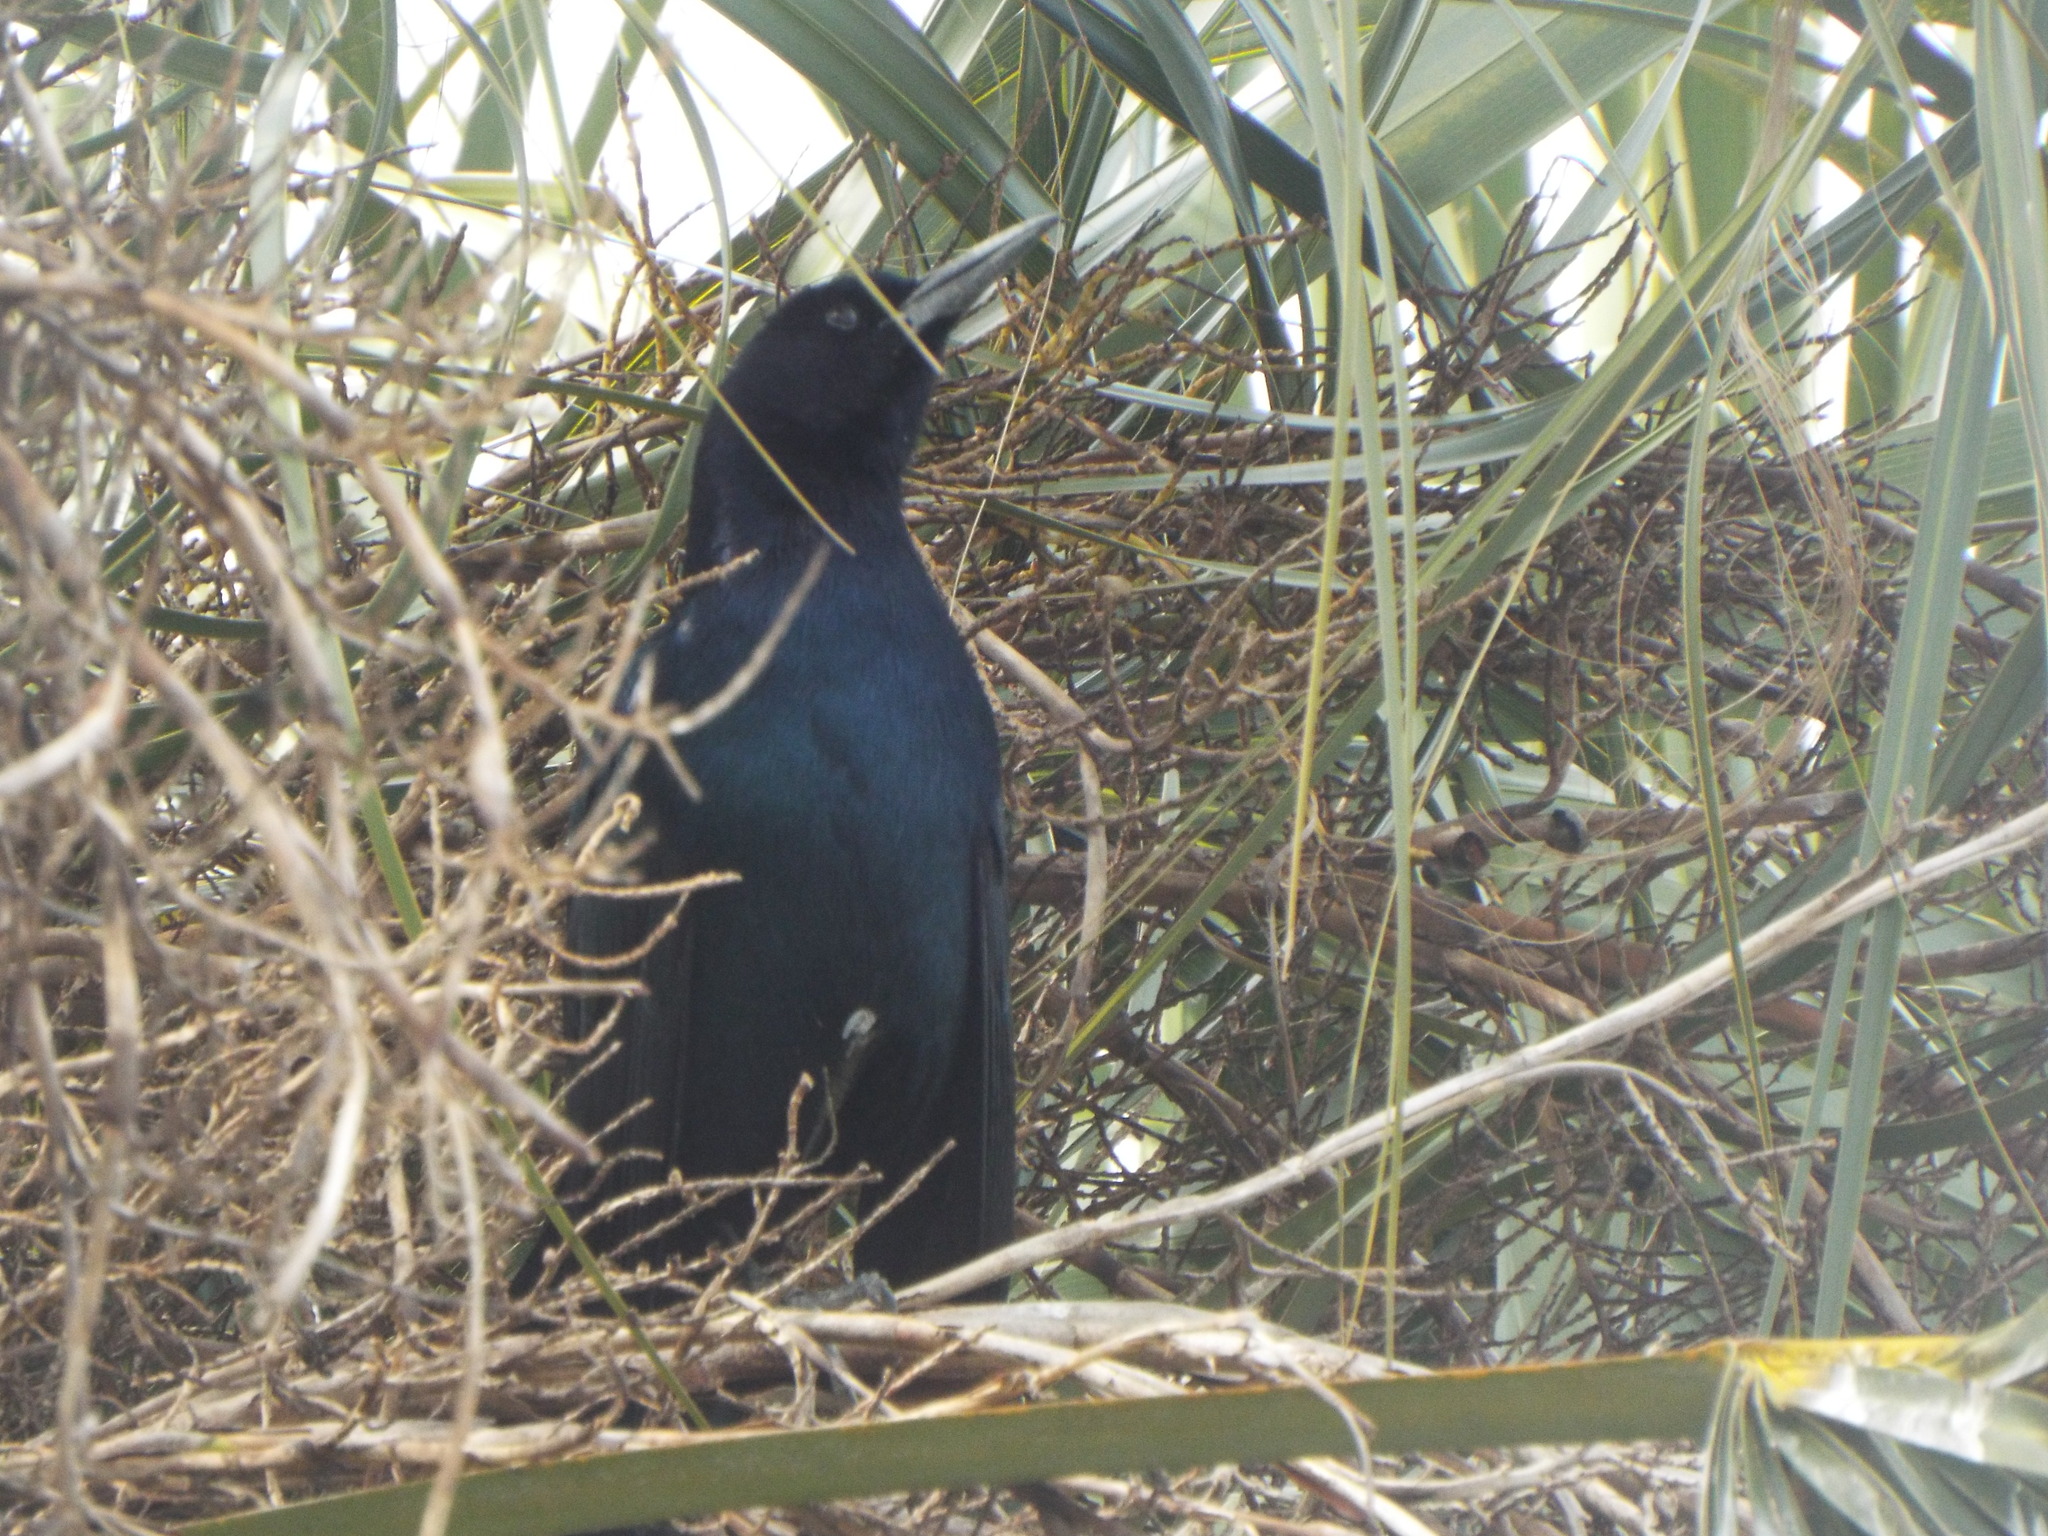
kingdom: Animalia
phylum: Chordata
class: Aves
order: Passeriformes
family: Icteridae
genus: Quiscalus
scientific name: Quiscalus major
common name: Boat-tailed grackle
